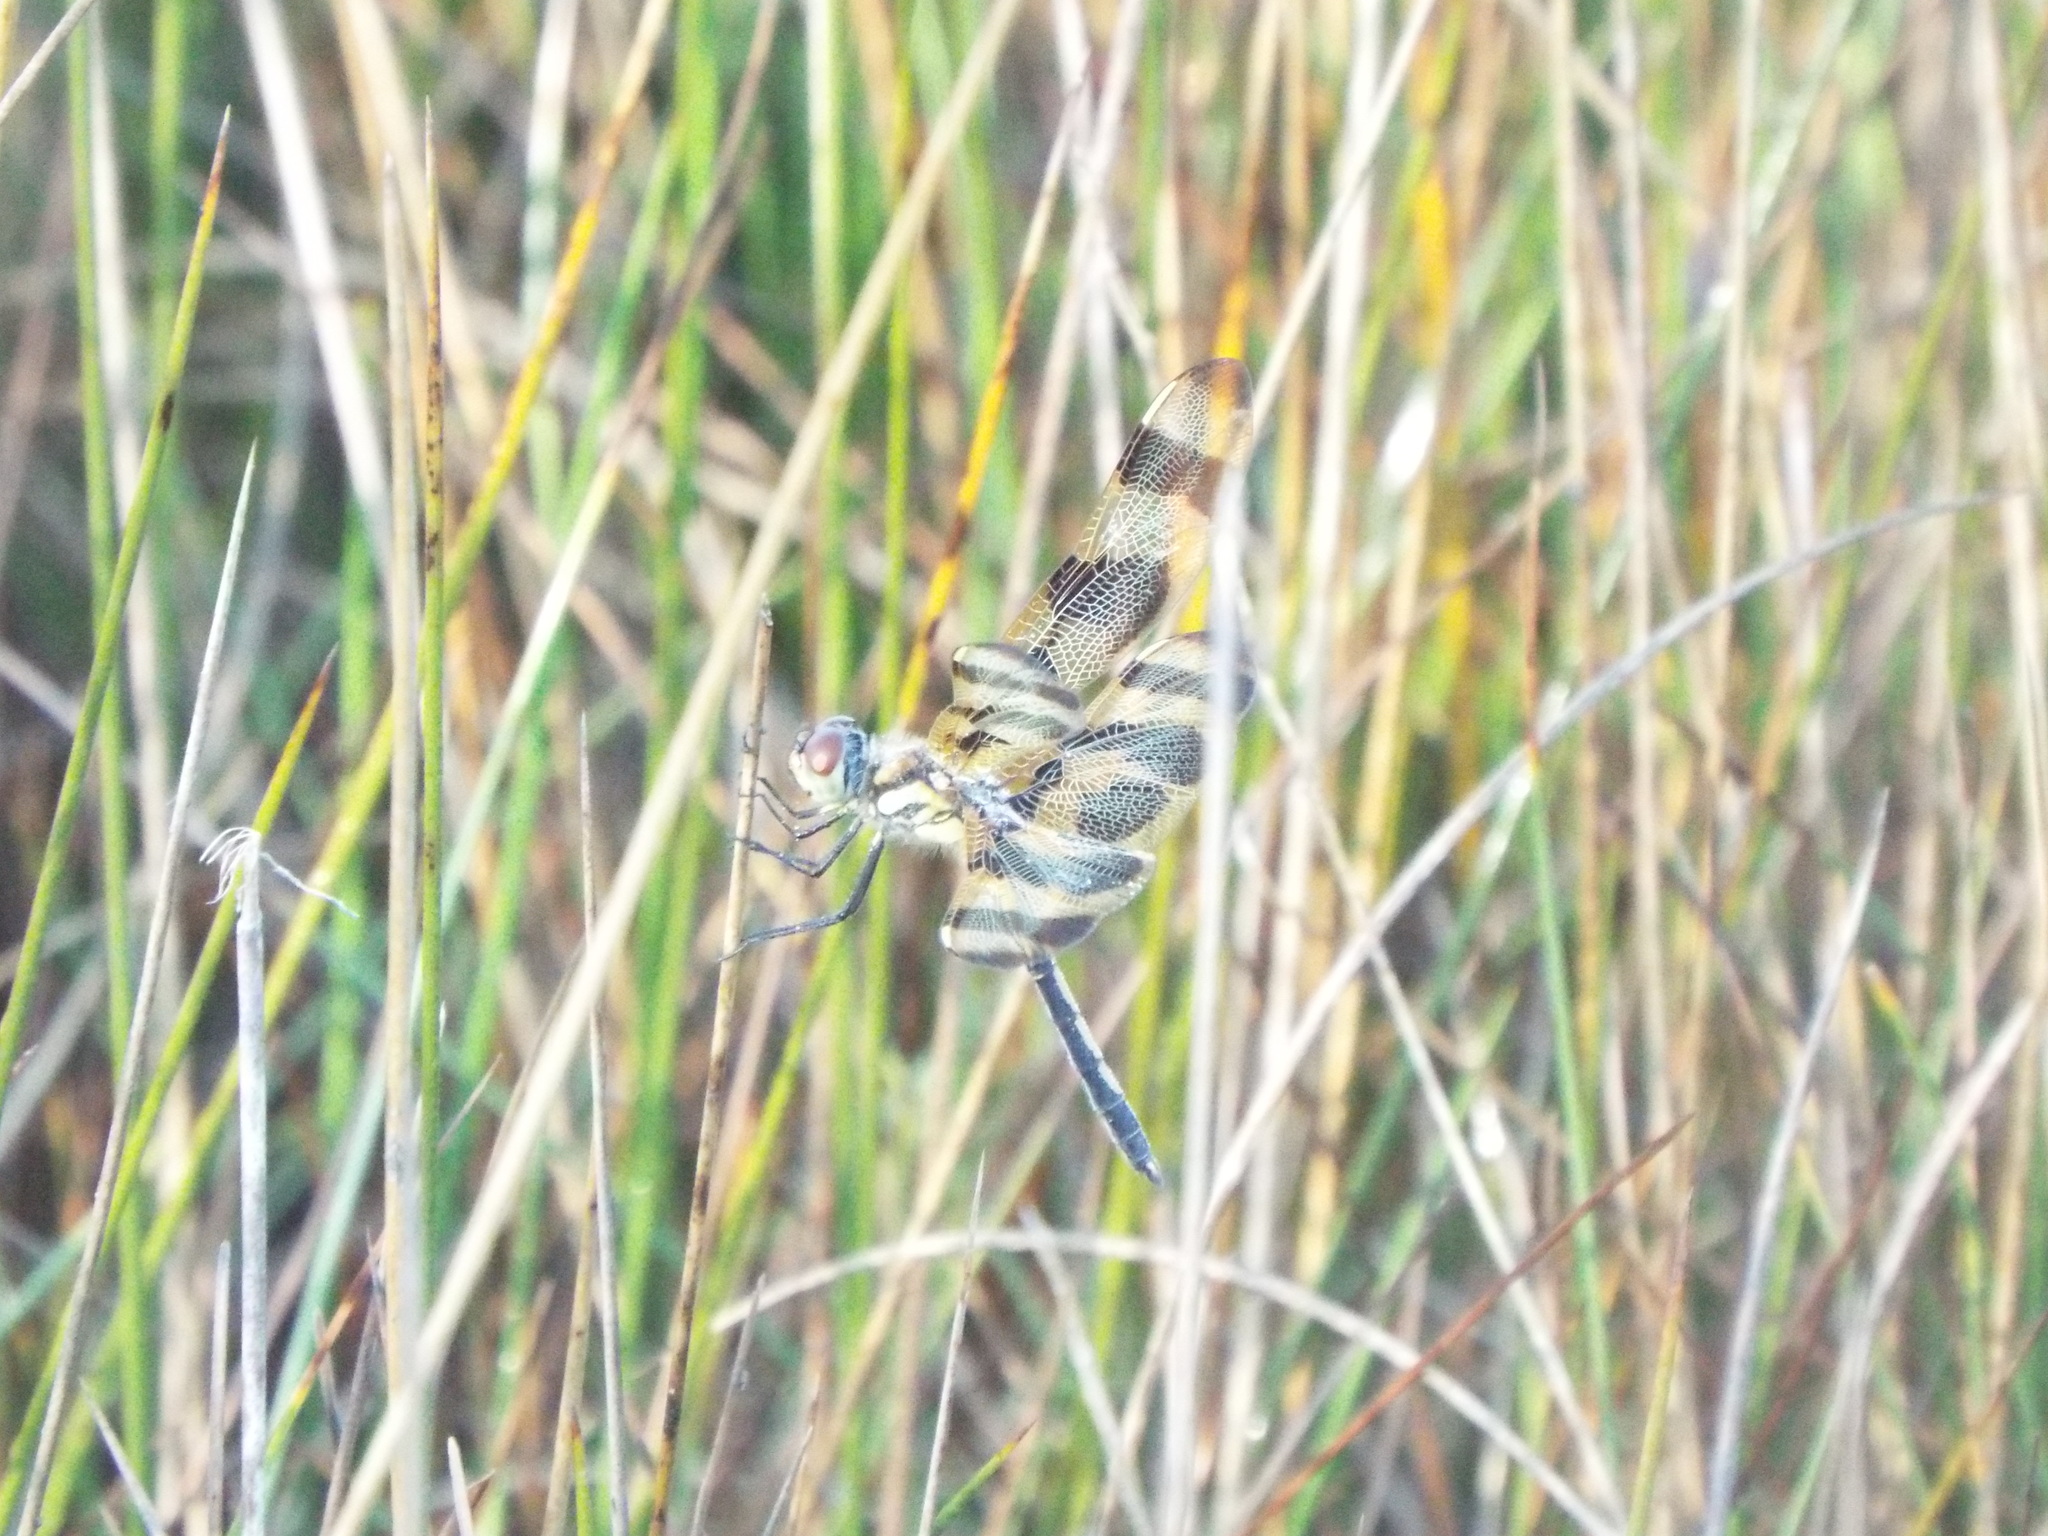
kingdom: Animalia
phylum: Arthropoda
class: Insecta
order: Odonata
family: Libellulidae
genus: Celithemis
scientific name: Celithemis eponina
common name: Halloween pennant
